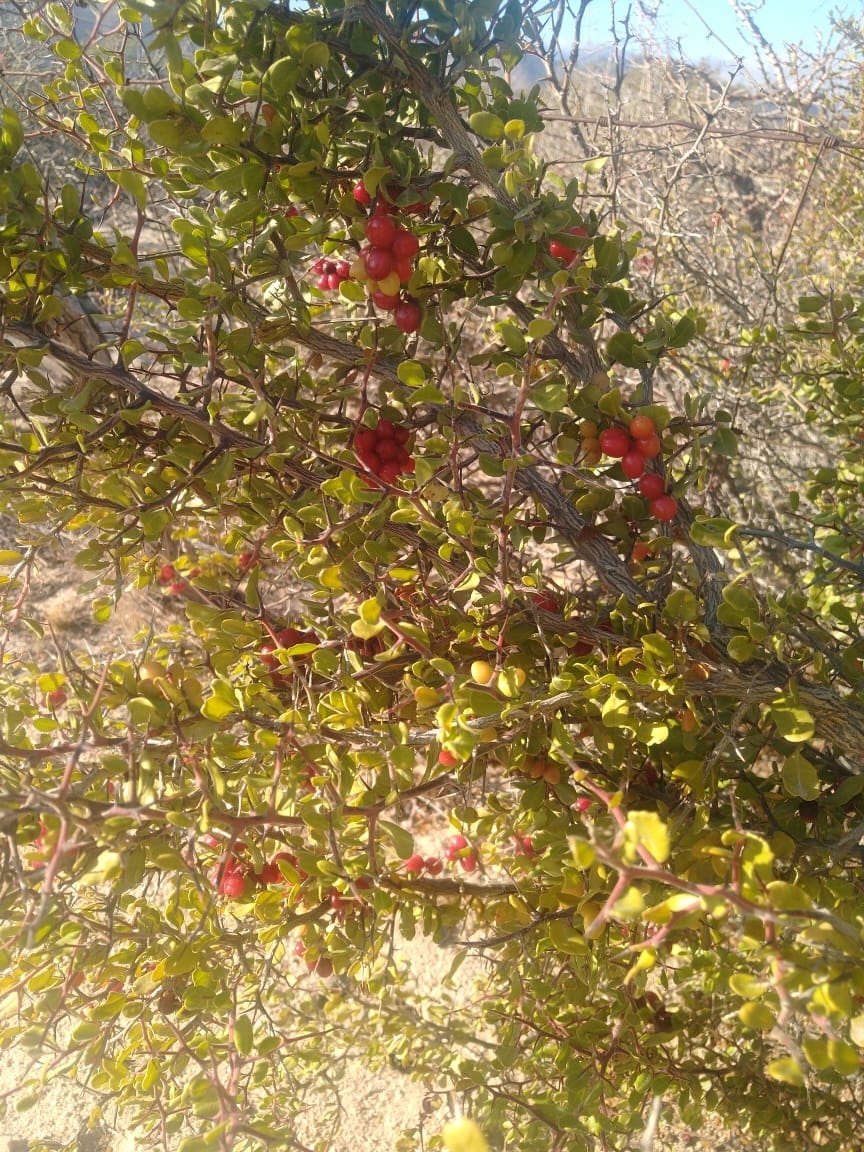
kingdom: Plantae
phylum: Tracheophyta
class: Magnoliopsida
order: Sapindales
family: Simaroubaceae
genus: Castela
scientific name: Castela peninsularis
